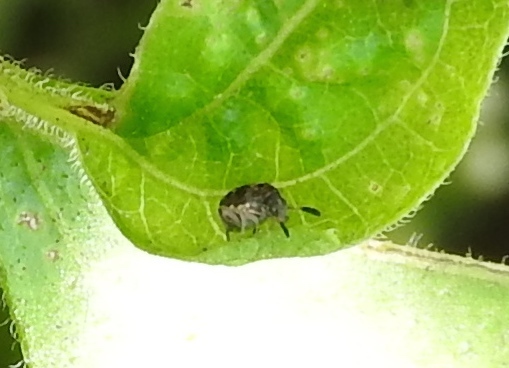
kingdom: Animalia
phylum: Arthropoda
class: Insecta
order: Coleoptera
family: Bruchidae
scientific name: Bruchidae
